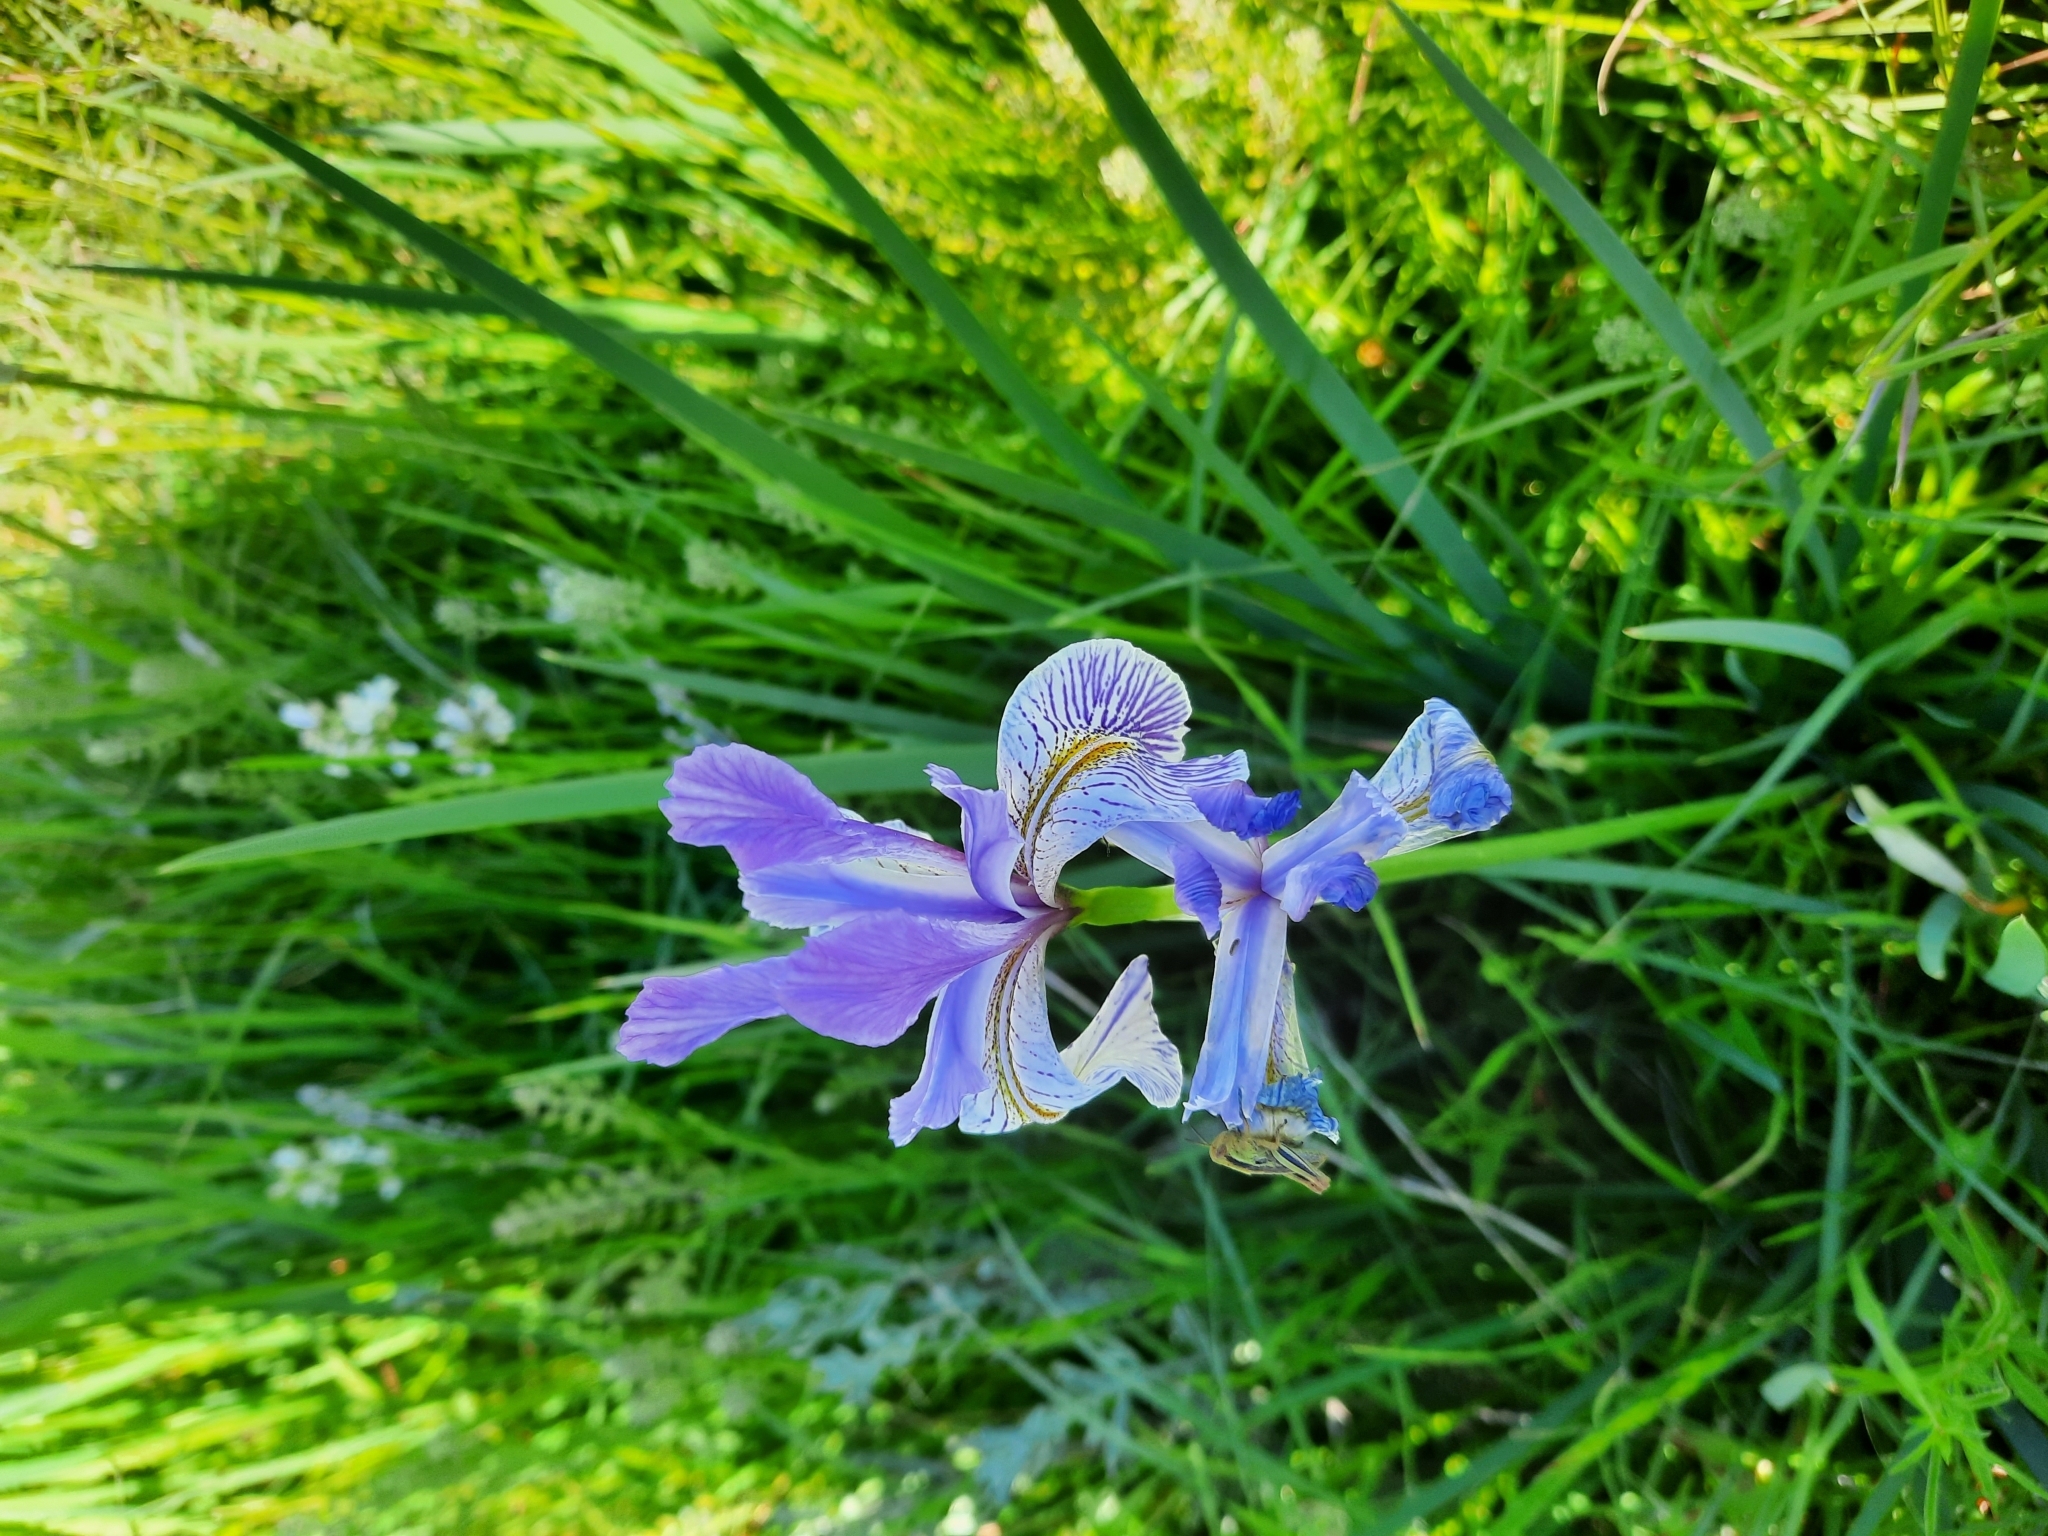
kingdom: Plantae
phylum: Tracheophyta
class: Liliopsida
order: Asparagales
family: Iridaceae
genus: Iris
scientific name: Iris missouriensis
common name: Rocky mountain iris
